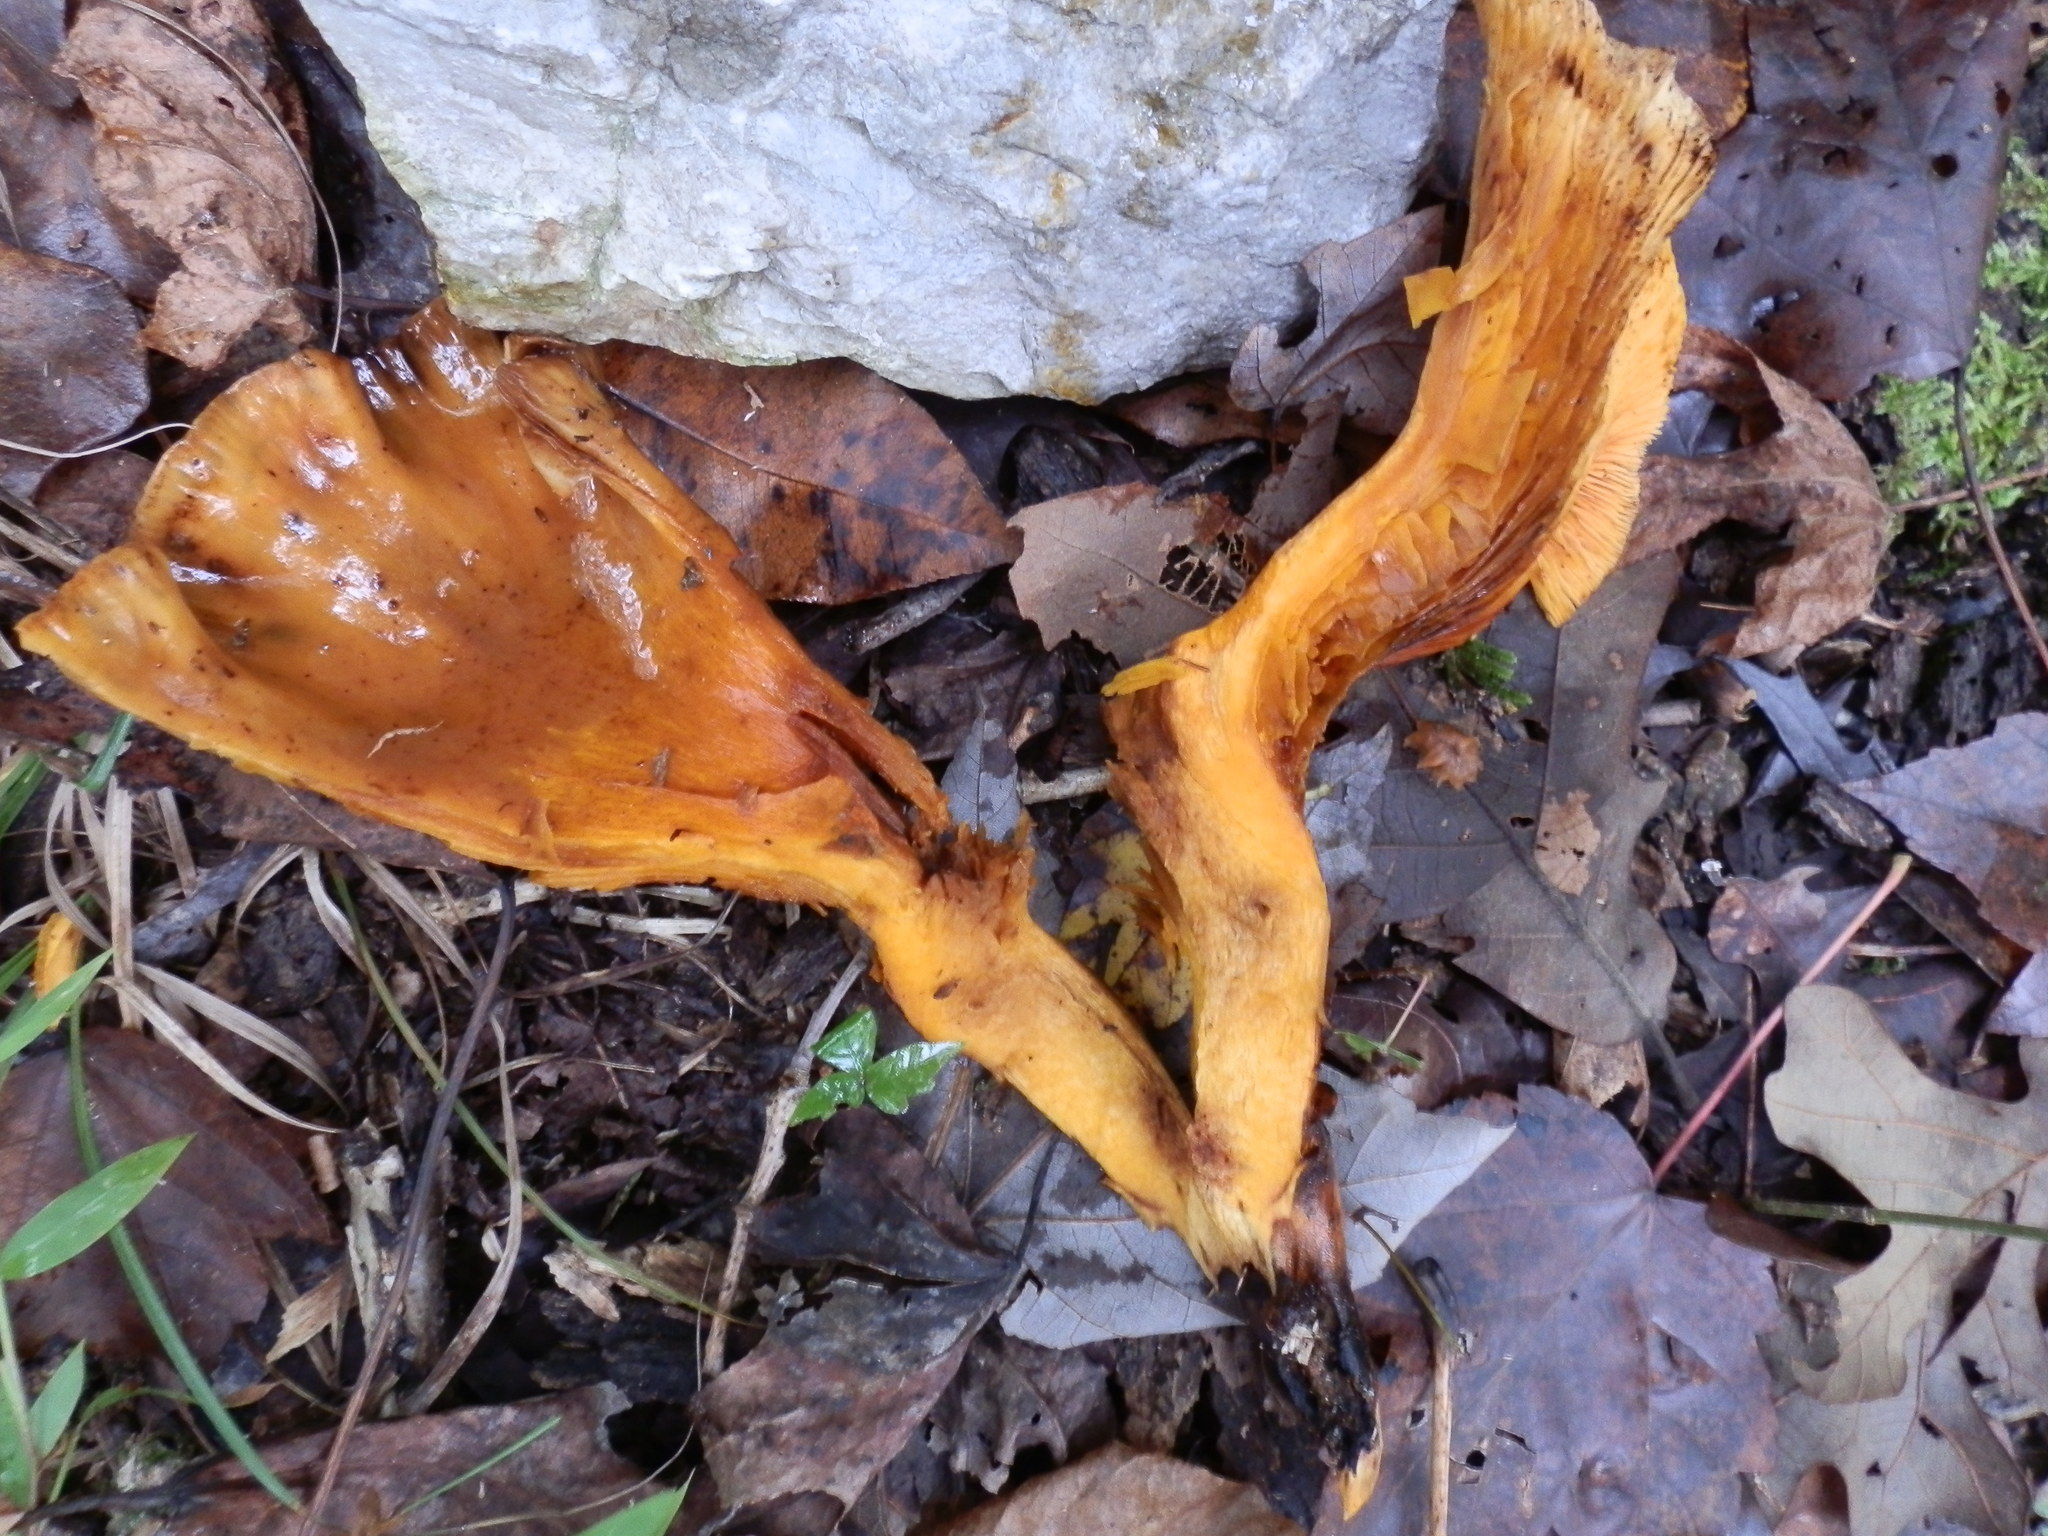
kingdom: Fungi
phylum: Basidiomycota
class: Agaricomycetes
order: Agaricales
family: Omphalotaceae
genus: Omphalotus
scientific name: Omphalotus illudens
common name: Jack o lantern
